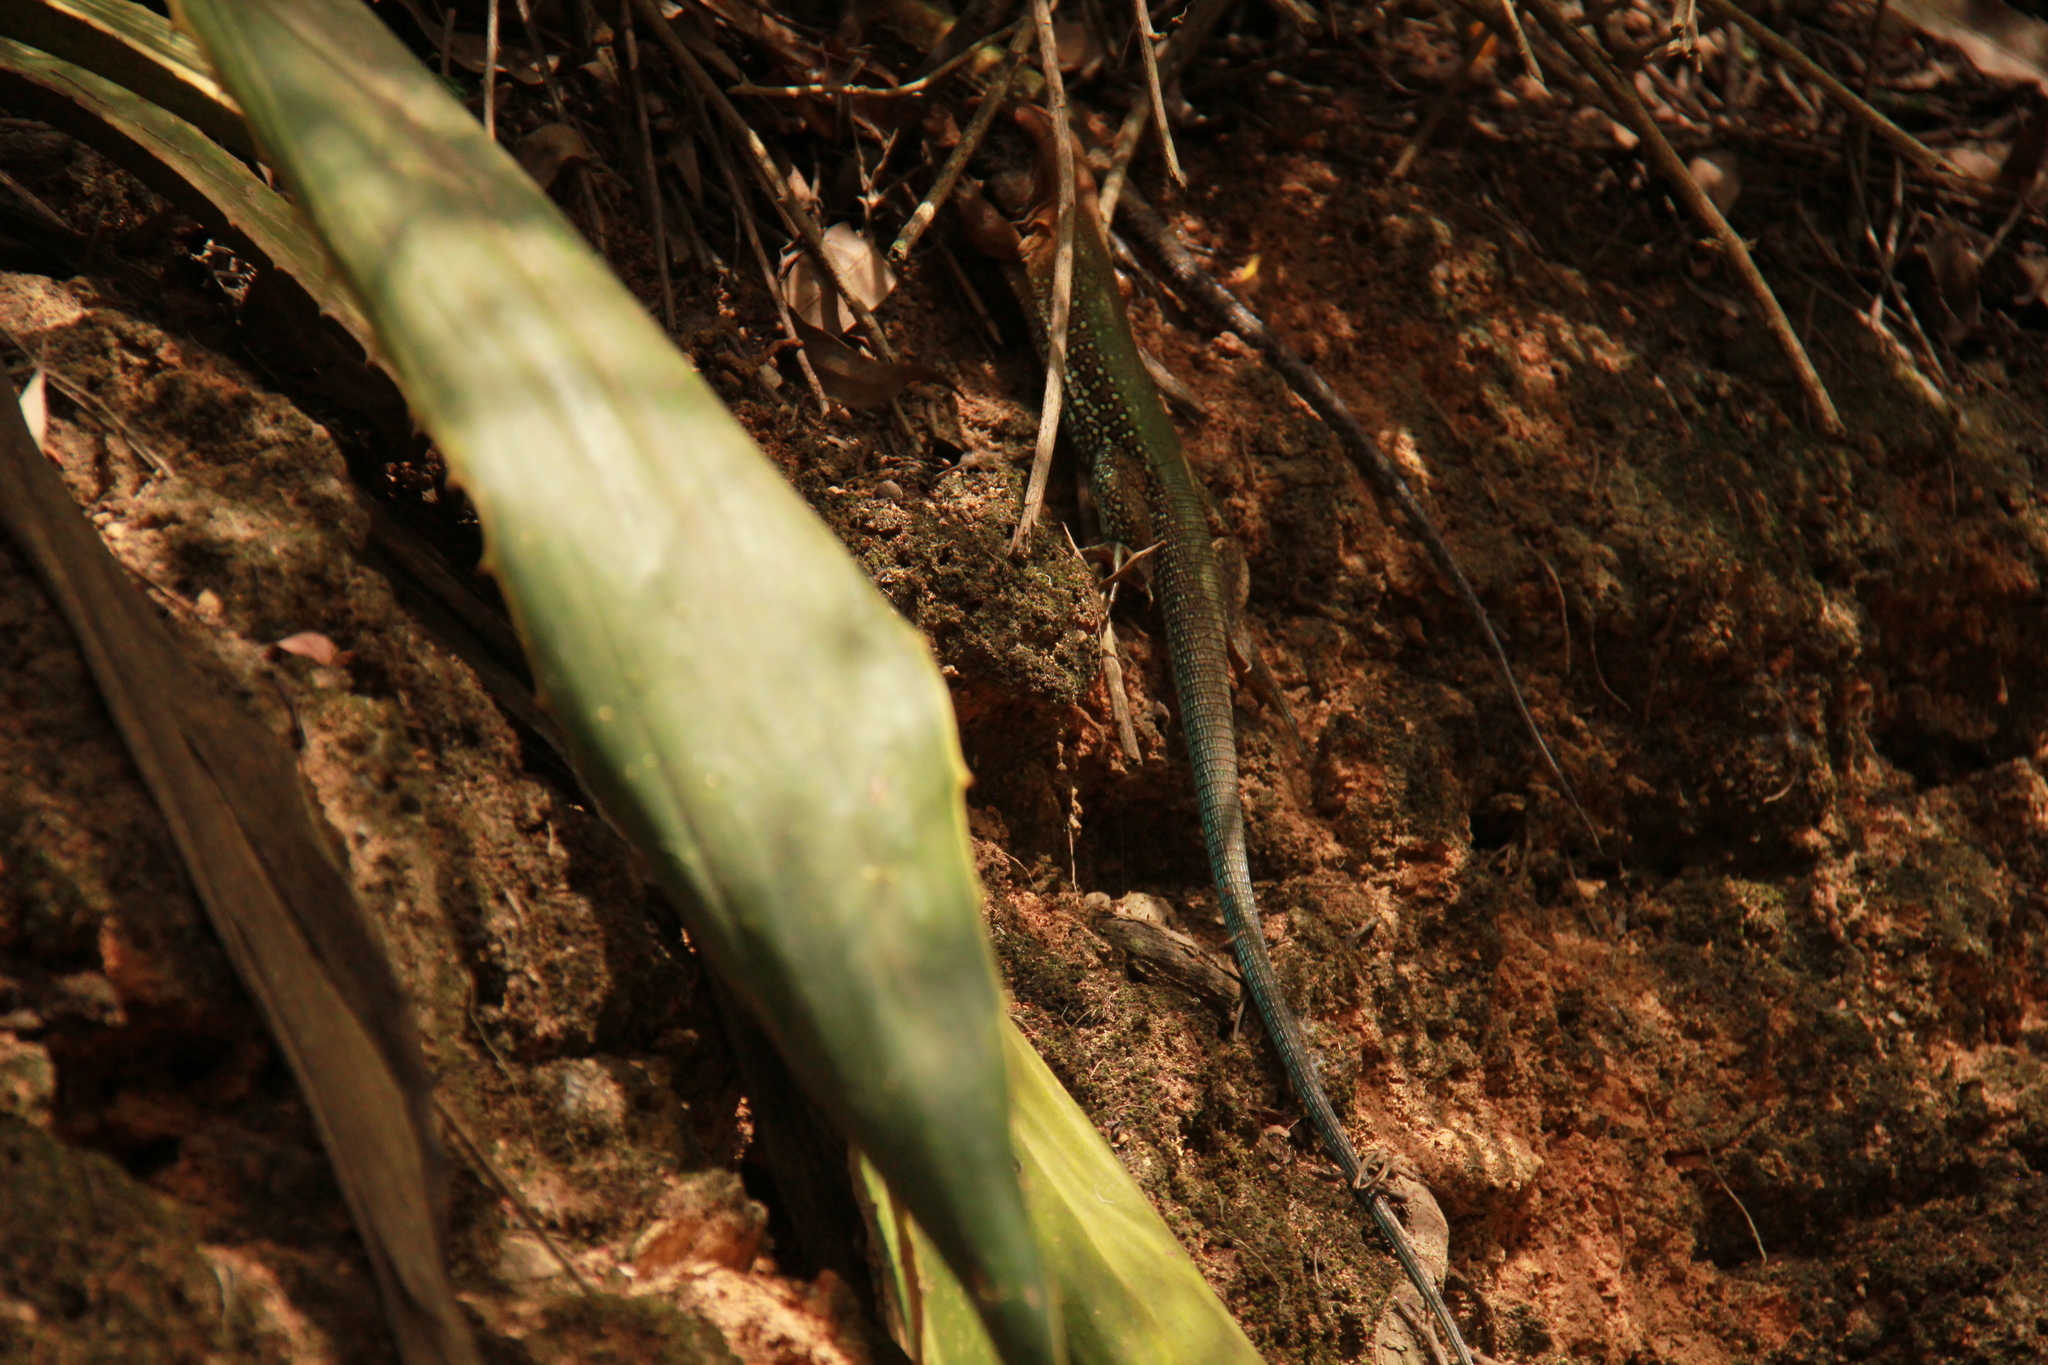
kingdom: Animalia
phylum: Chordata
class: Squamata
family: Teiidae
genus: Ameiva
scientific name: Ameiva atrigularis
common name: Venezuelan ameiva
